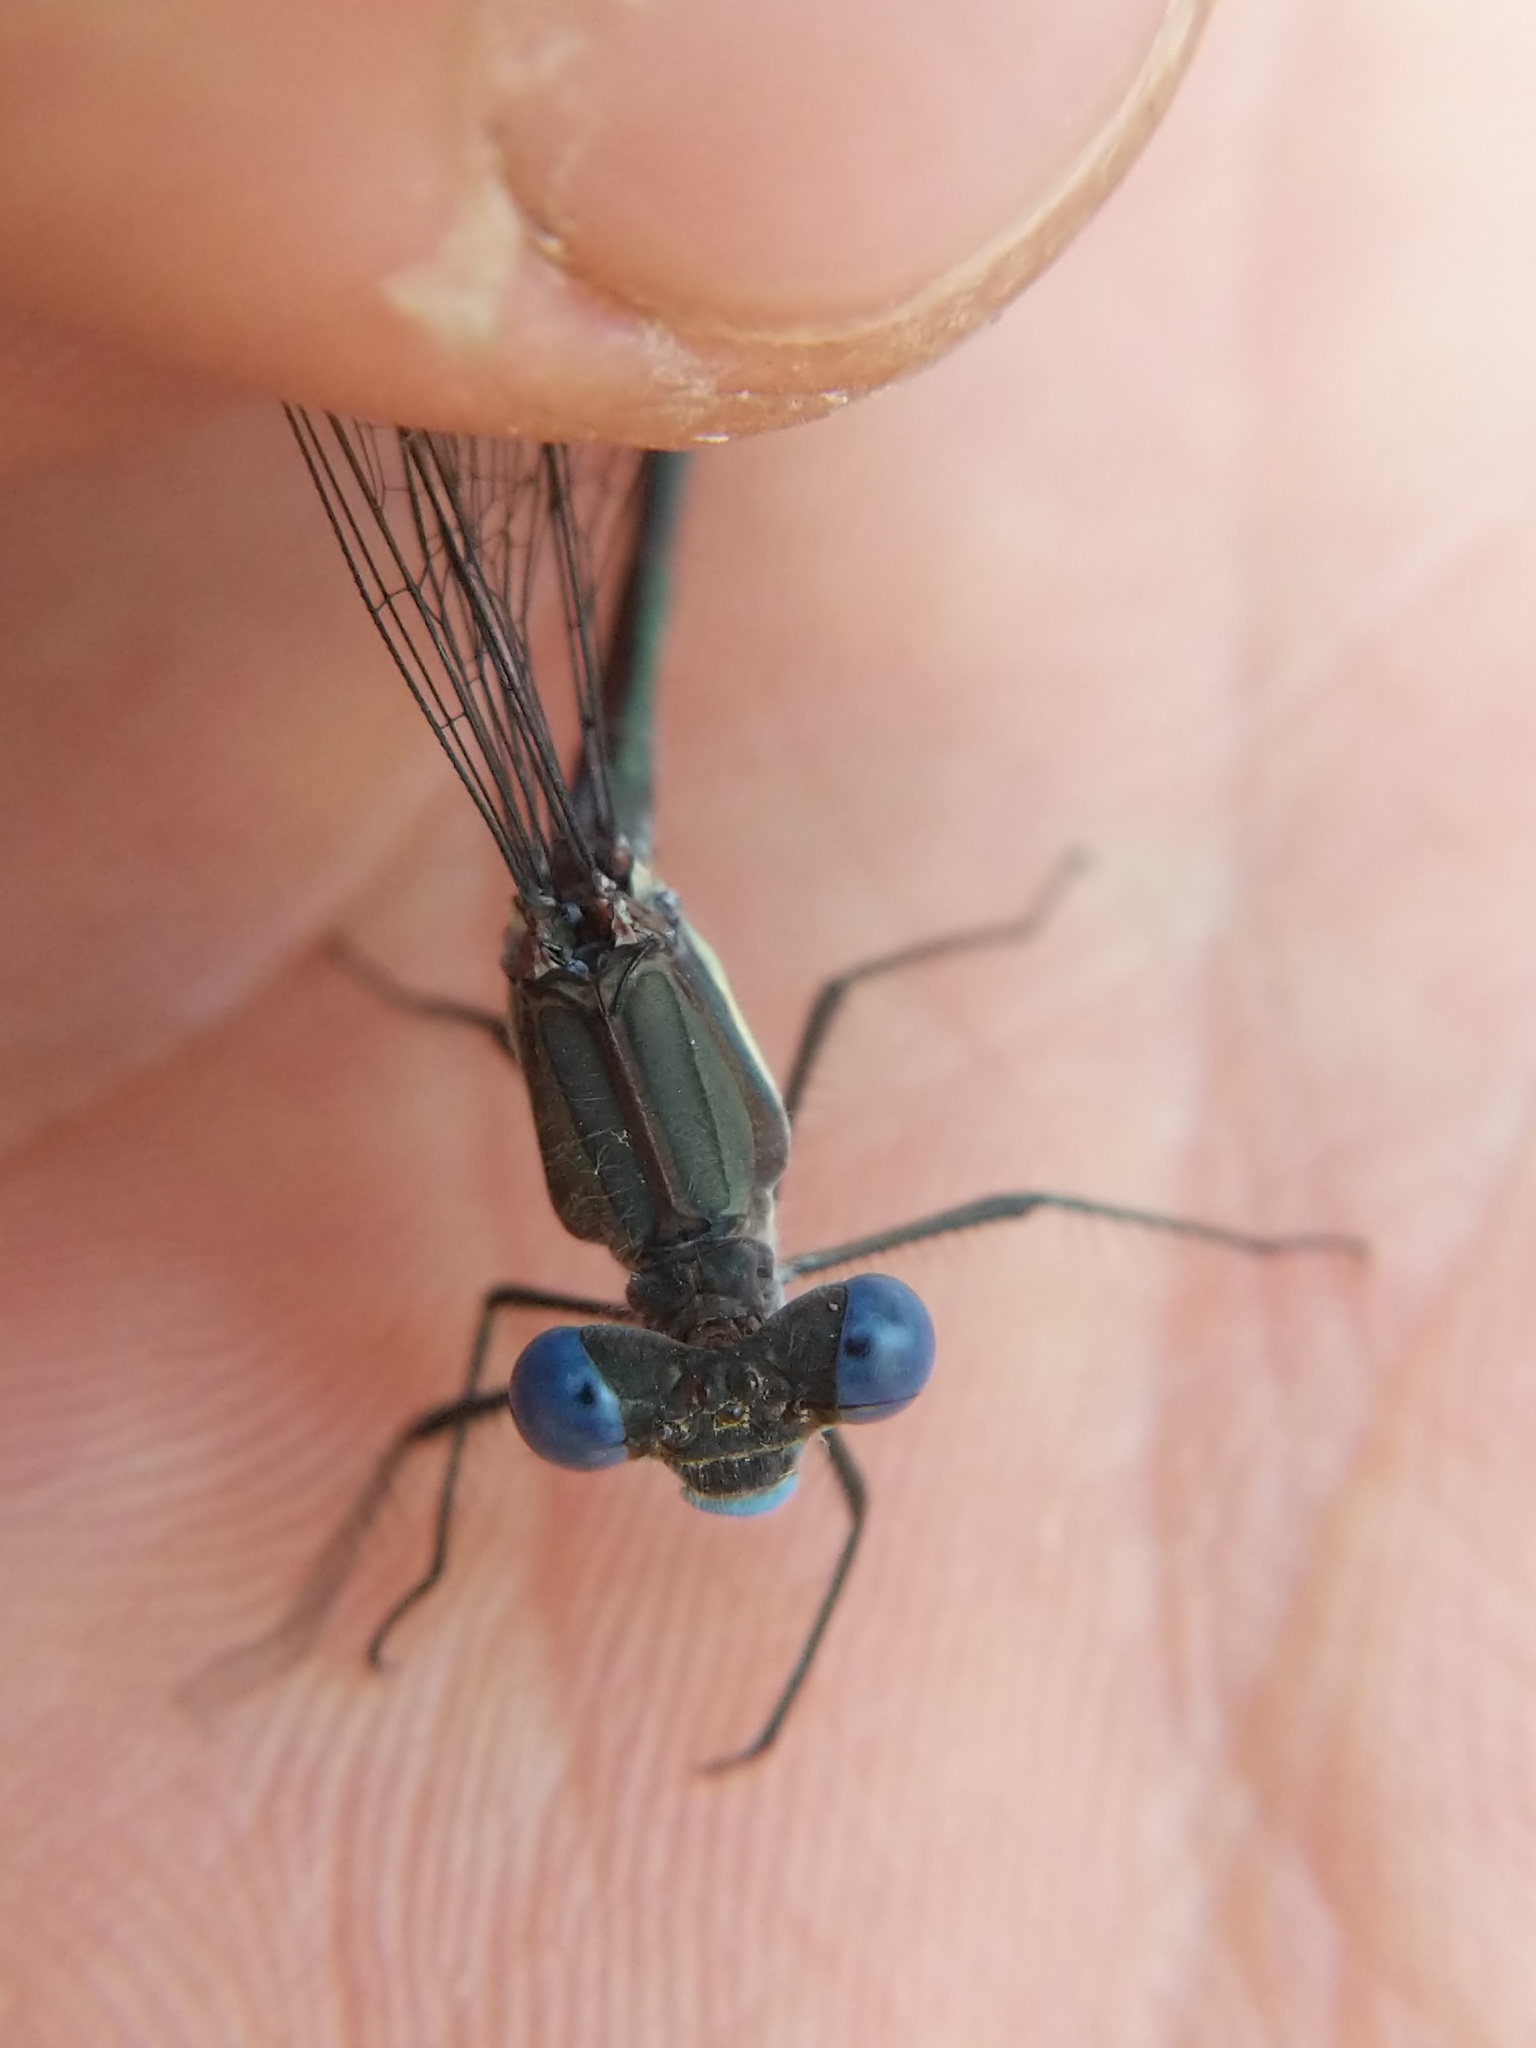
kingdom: Animalia
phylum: Arthropoda
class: Insecta
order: Odonata
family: Lestidae
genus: Archilestes
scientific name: Archilestes grandis
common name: Great spreadwing
